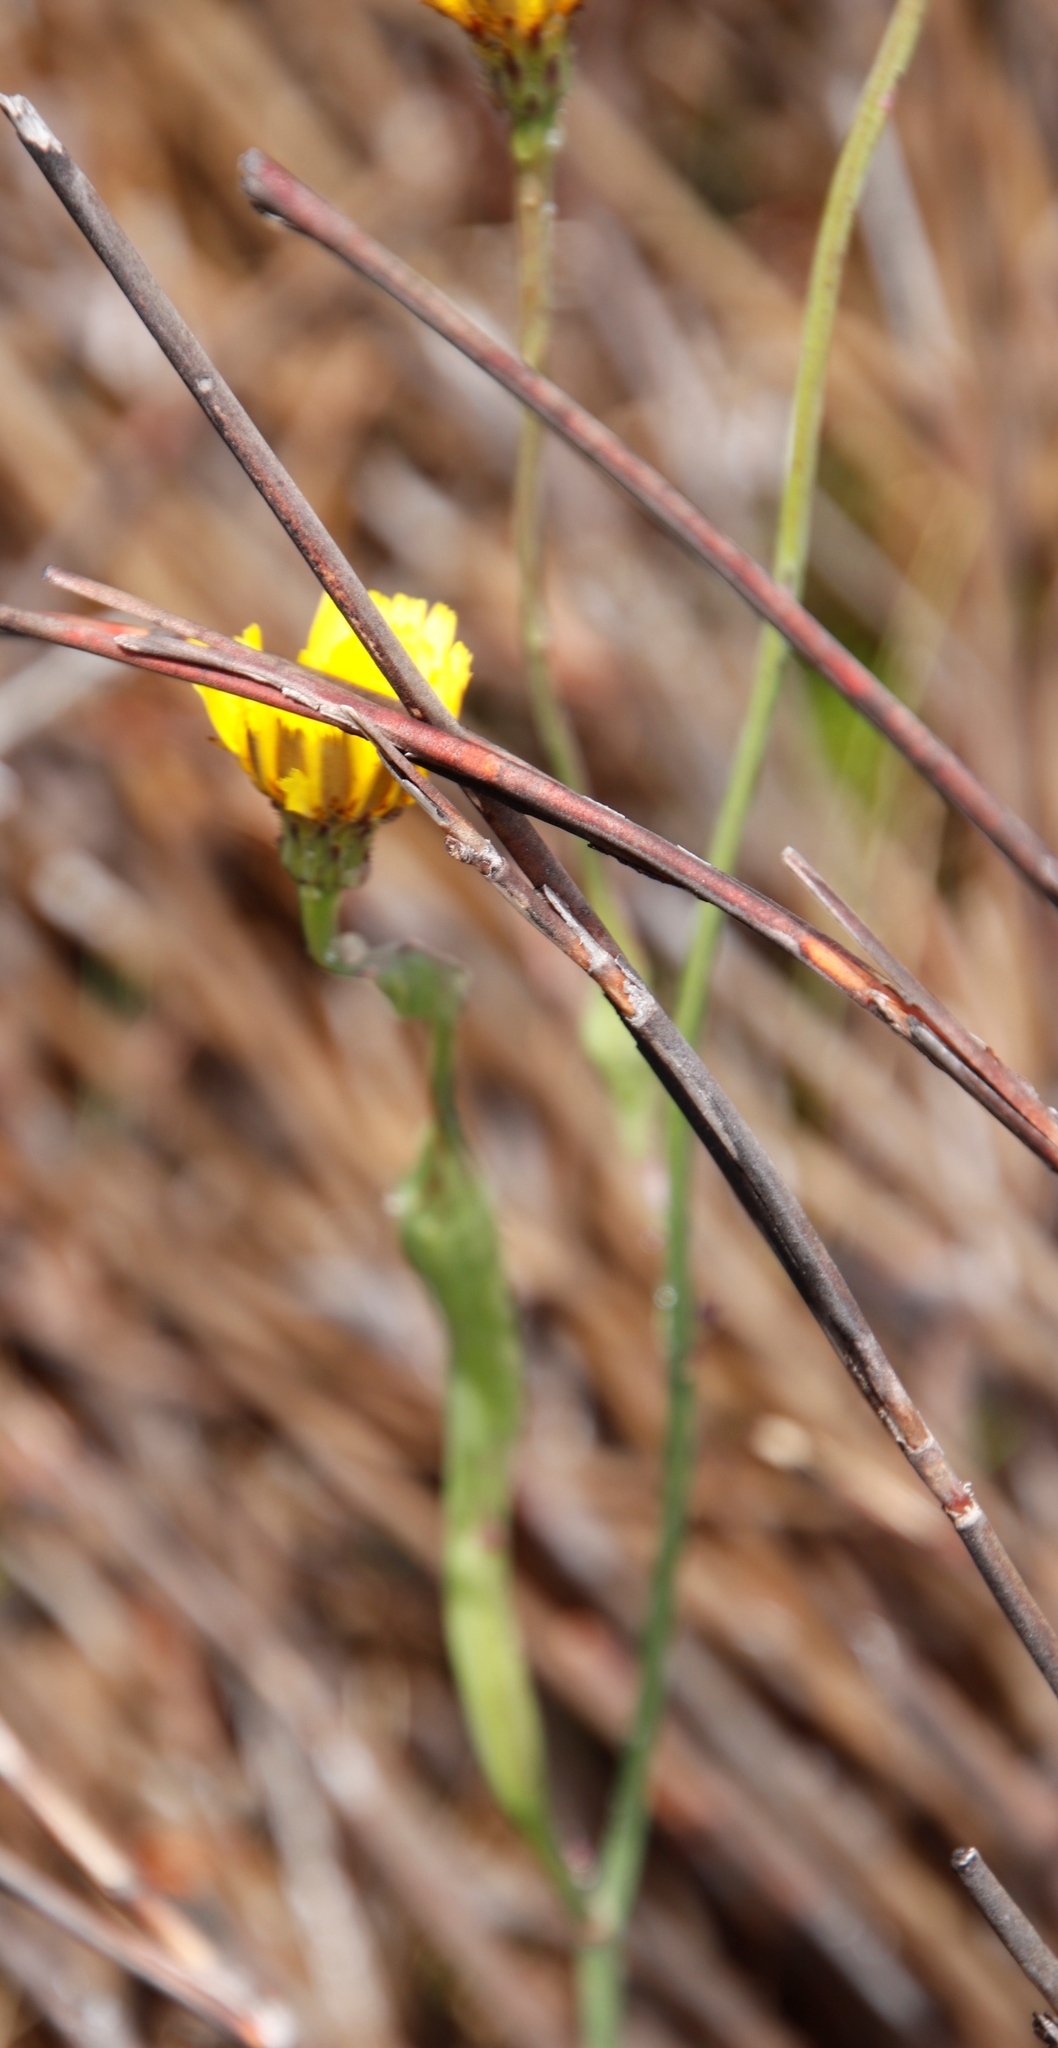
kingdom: Animalia
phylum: Arthropoda
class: Insecta
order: Hymenoptera
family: Cynipidae
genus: Phanacis
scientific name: Phanacis hypochoeridis
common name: Gall wasp
